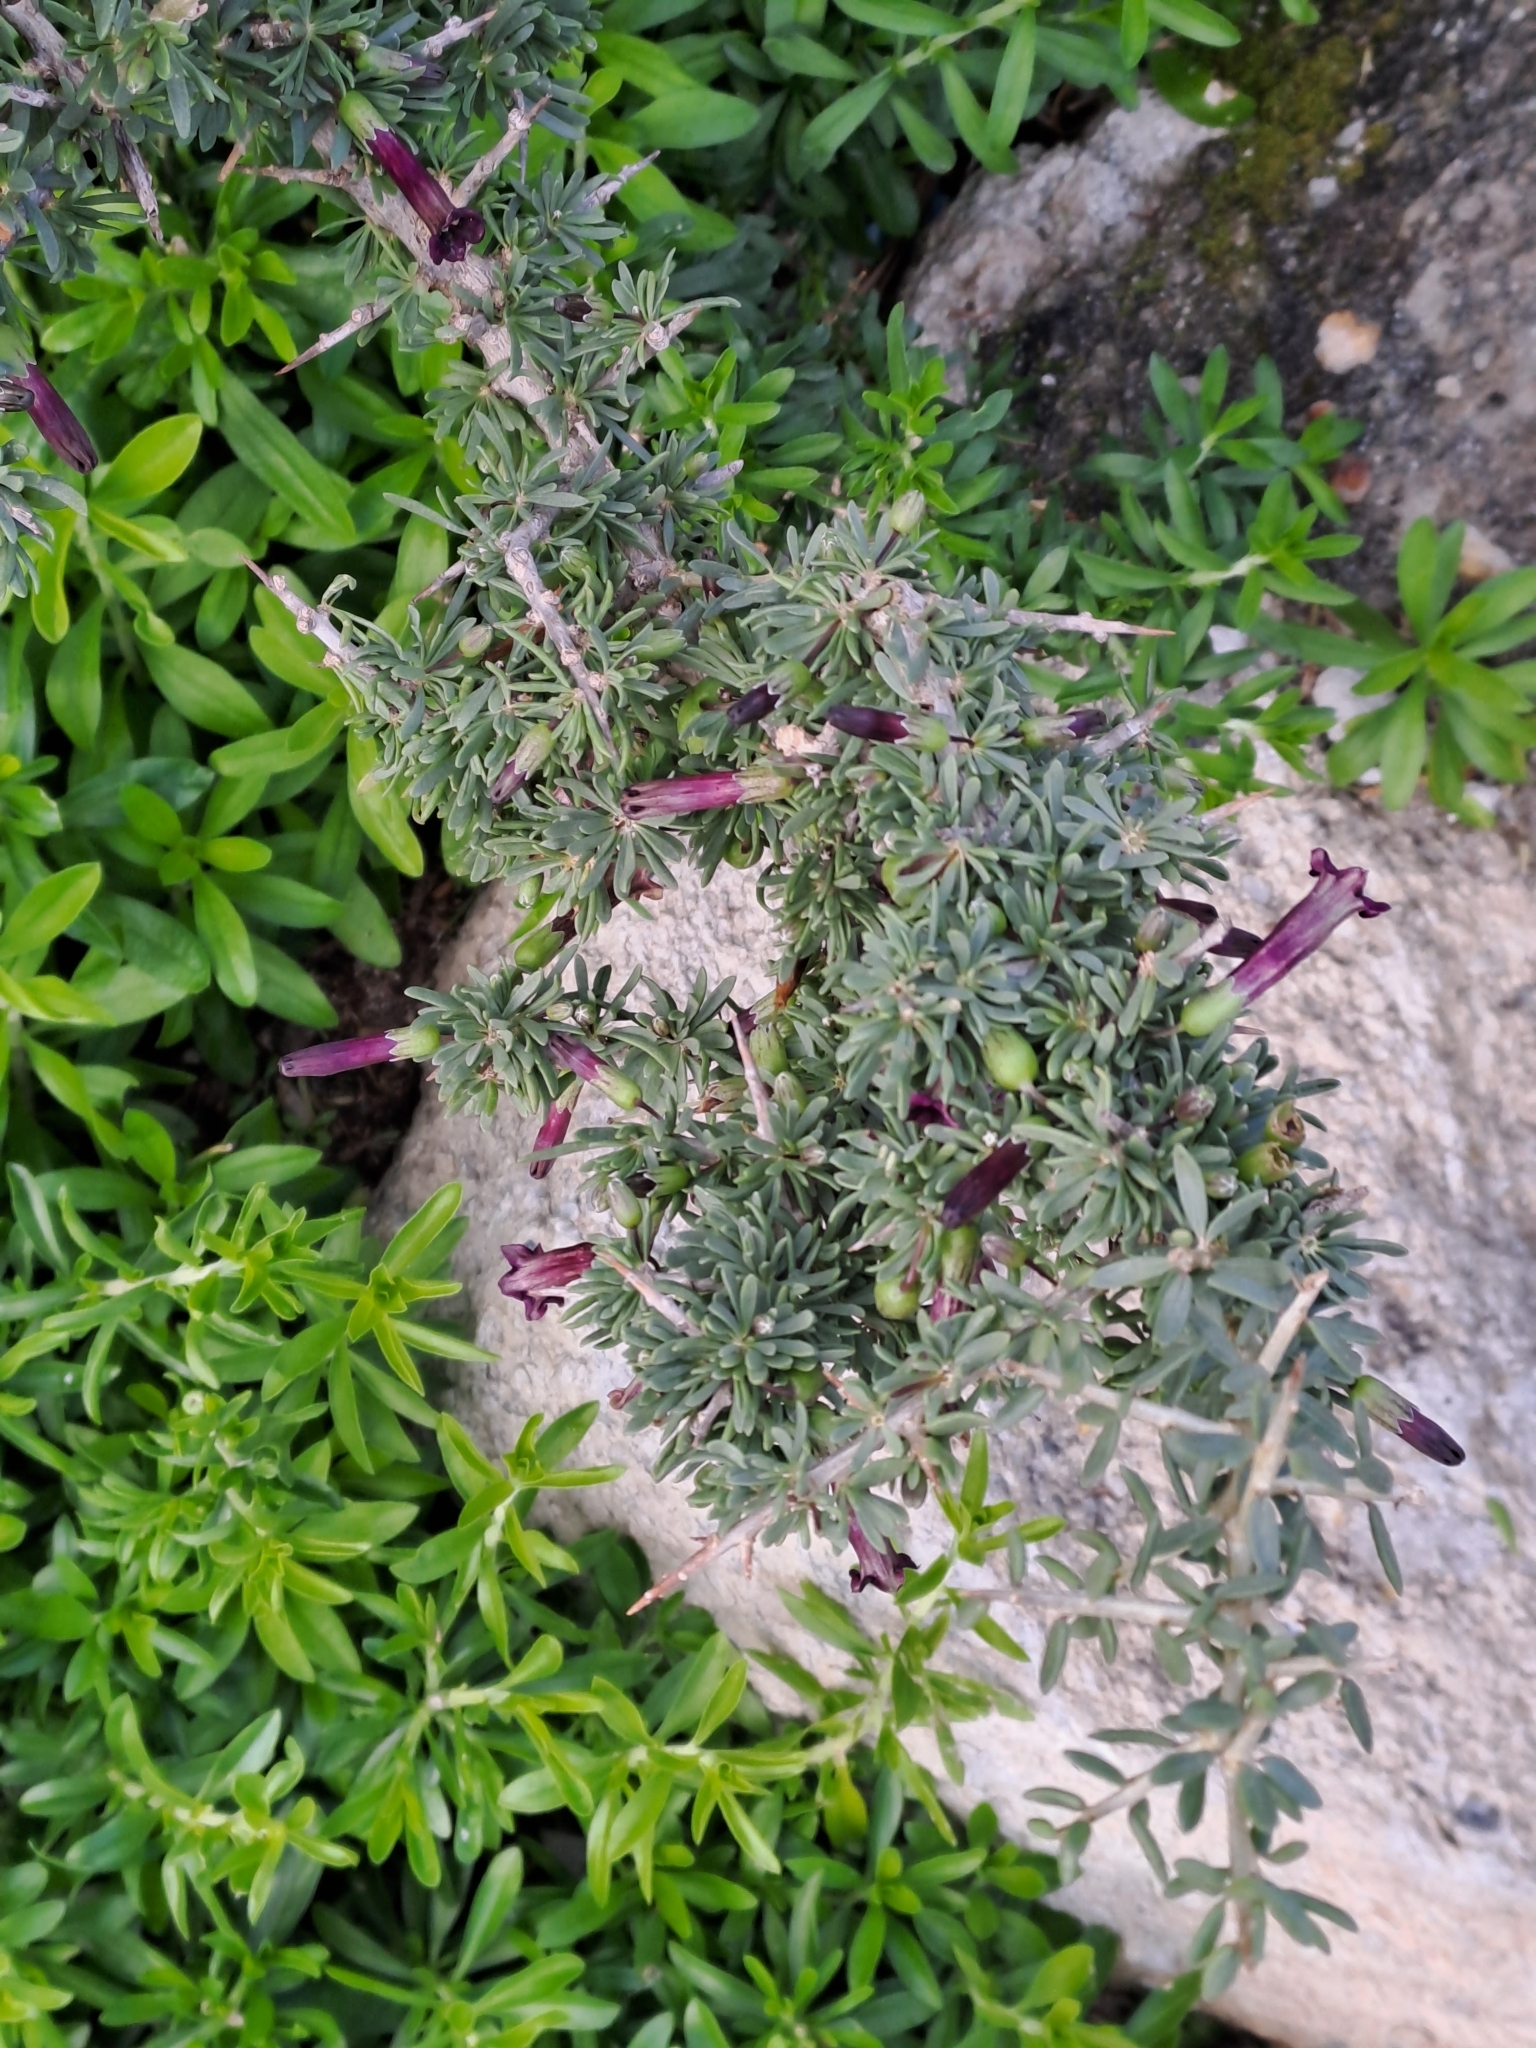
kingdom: Plantae
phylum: Tracheophyta
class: Magnoliopsida
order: Solanales
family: Solanaceae
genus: Lycium
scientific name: Lycium afrum
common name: Kaffir boxthorn
